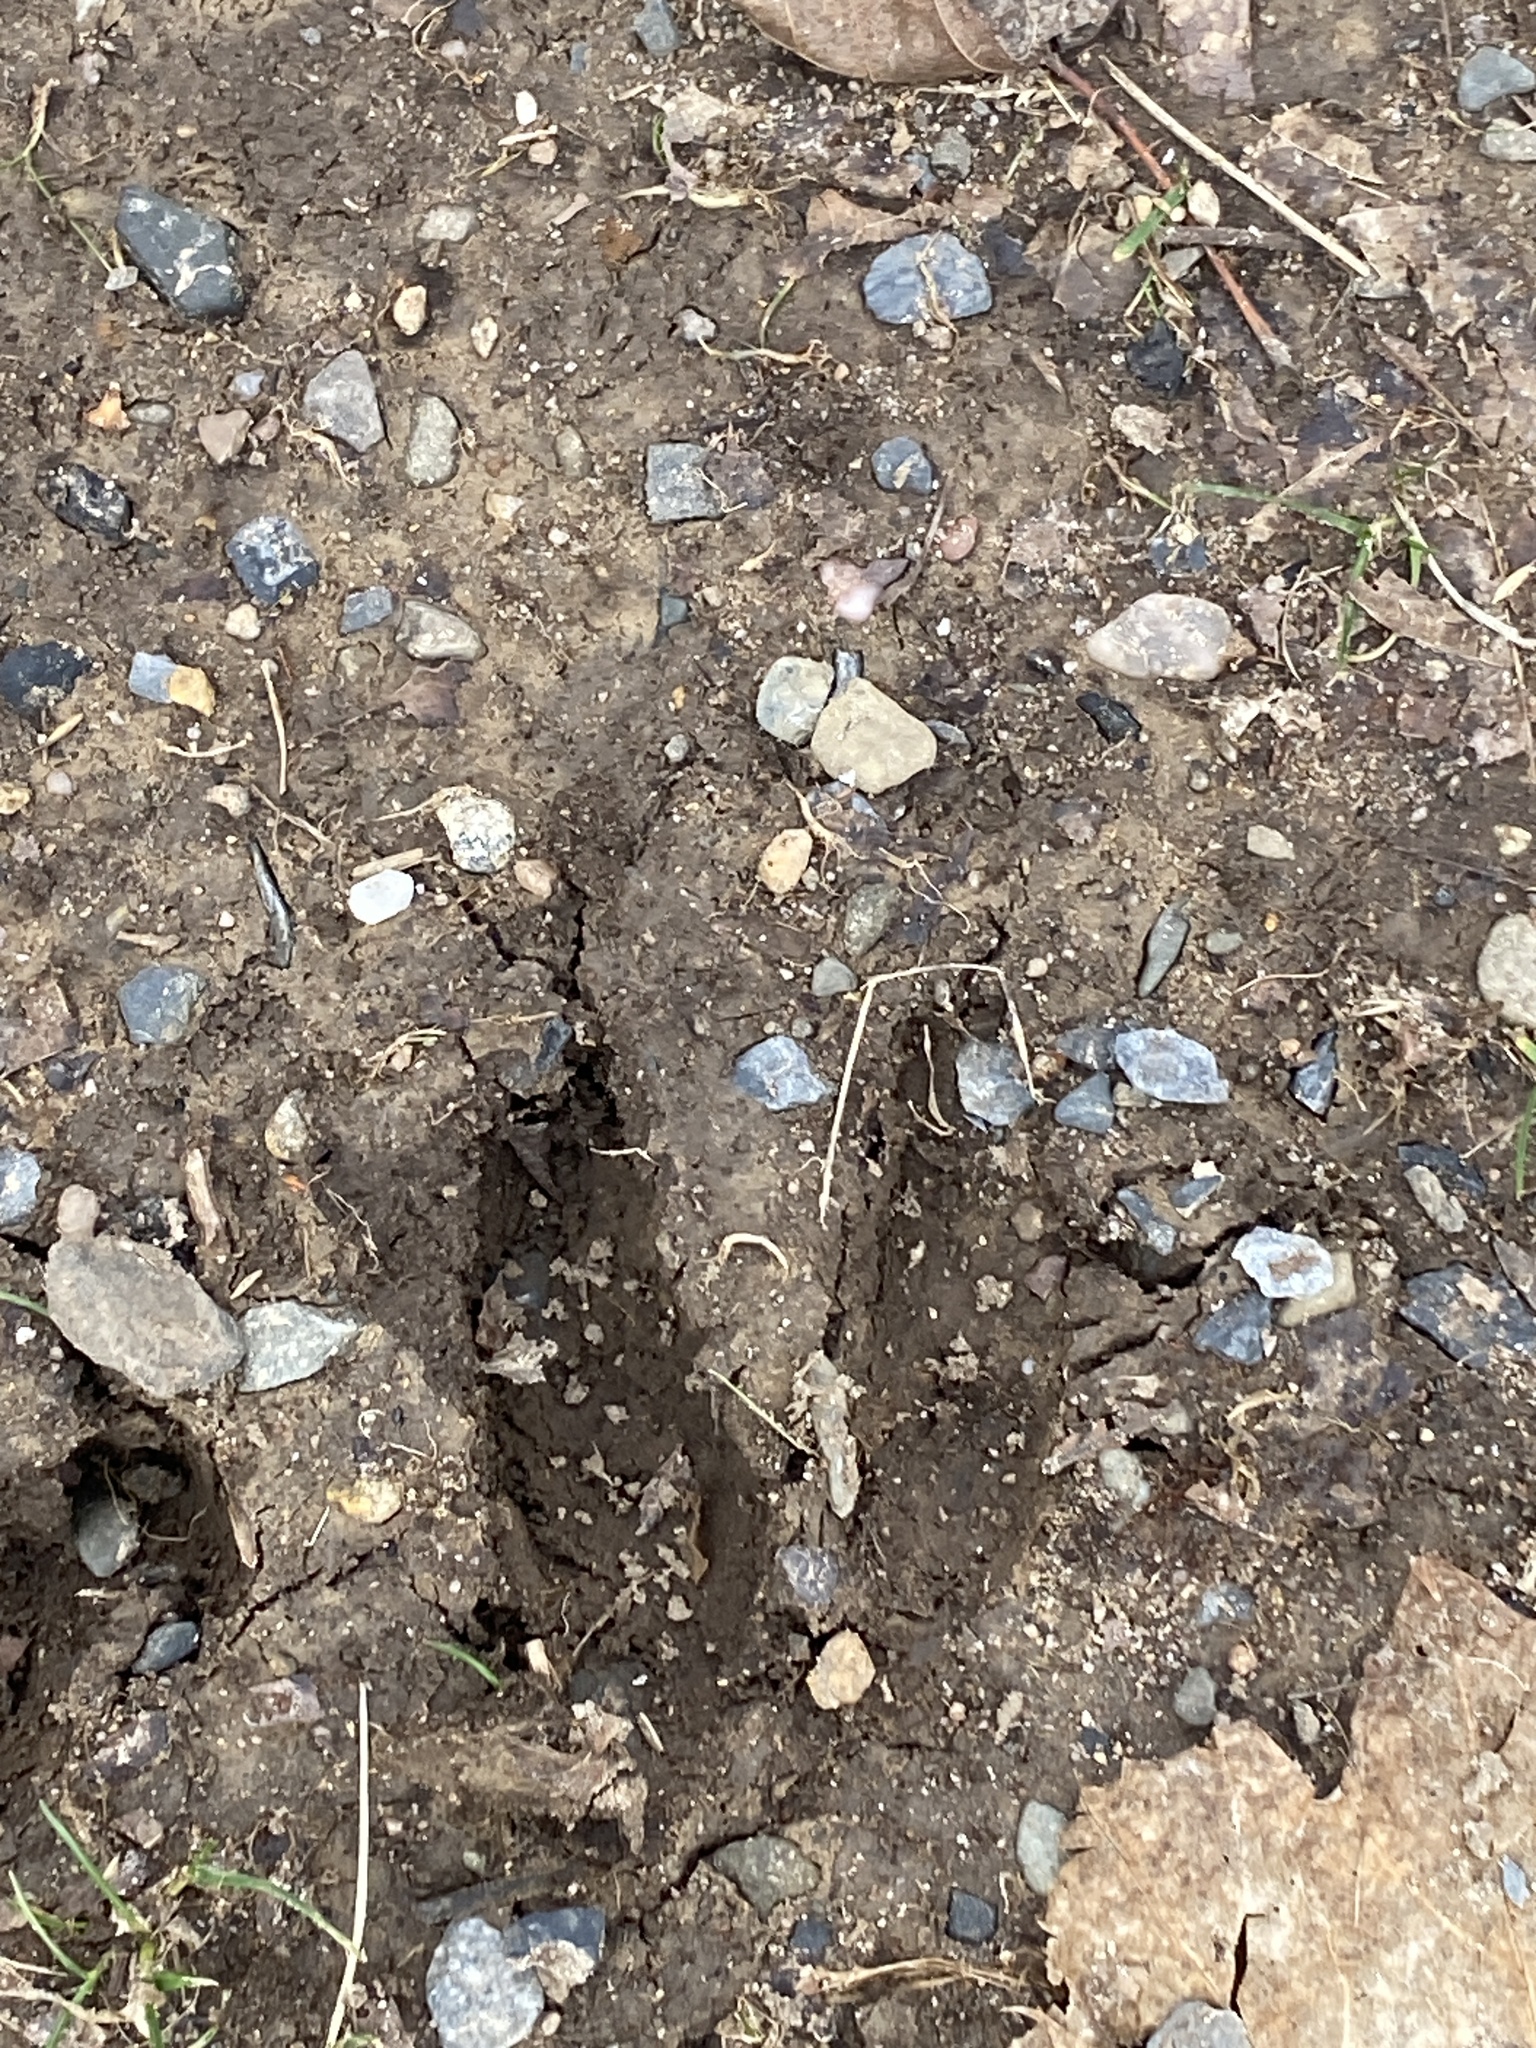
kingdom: Animalia
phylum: Chordata
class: Mammalia
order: Artiodactyla
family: Cervidae
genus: Odocoileus
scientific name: Odocoileus virginianus
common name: White-tailed deer
